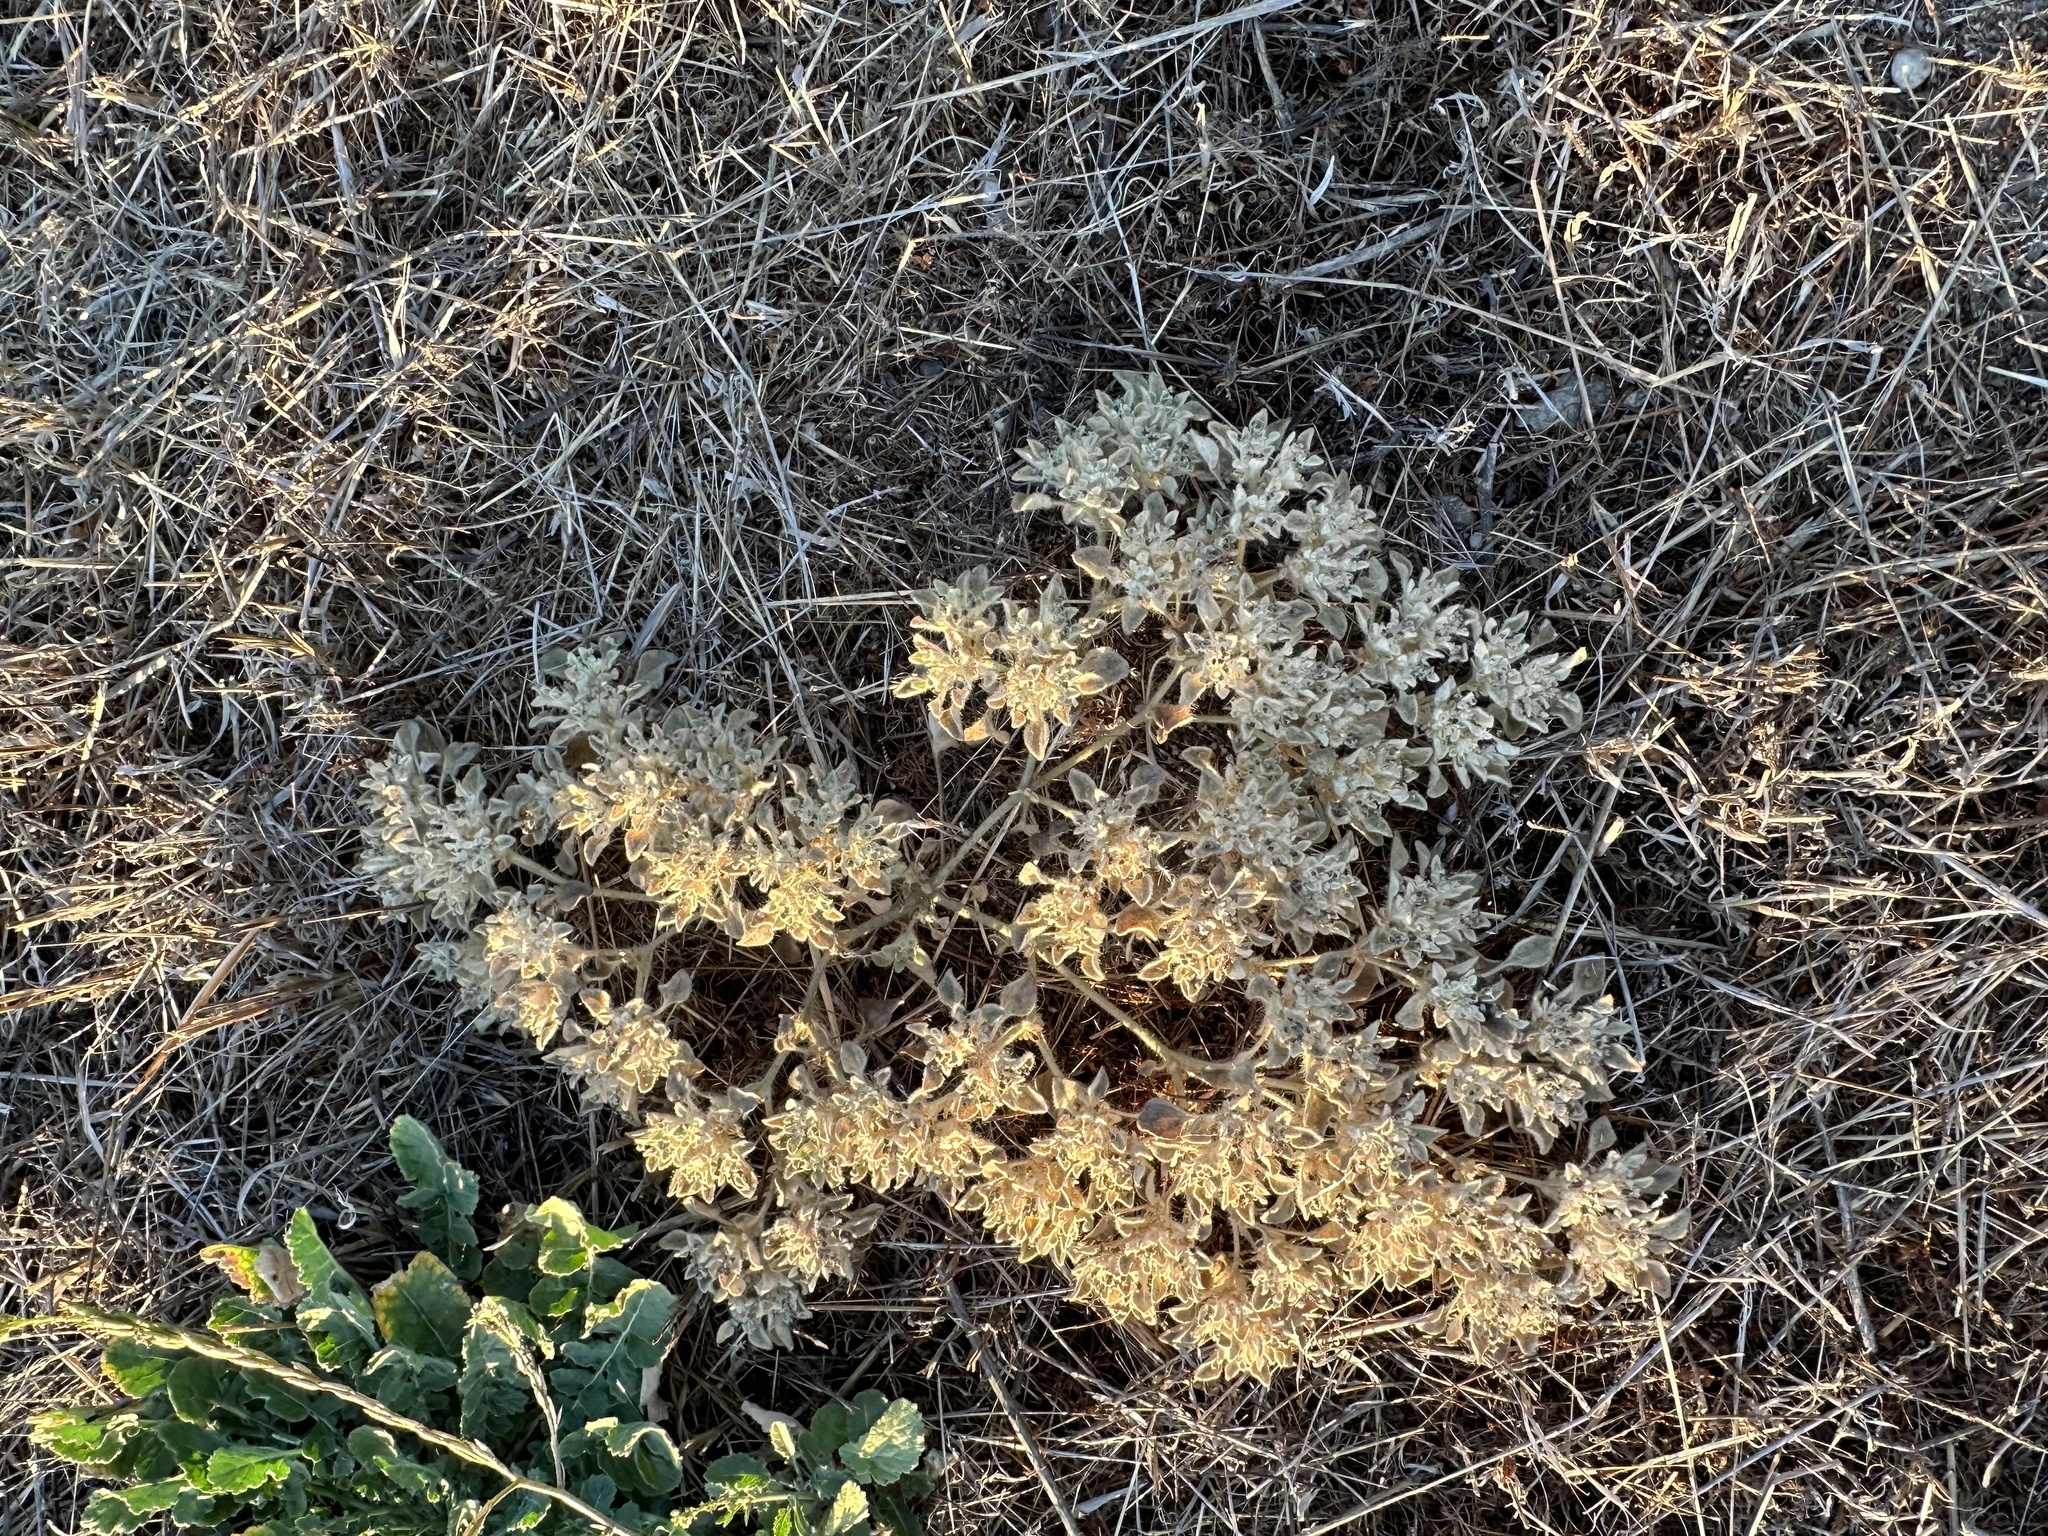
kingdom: Plantae
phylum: Tracheophyta
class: Magnoliopsida
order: Malpighiales
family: Euphorbiaceae
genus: Croton
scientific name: Croton setiger
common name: Dove weed
